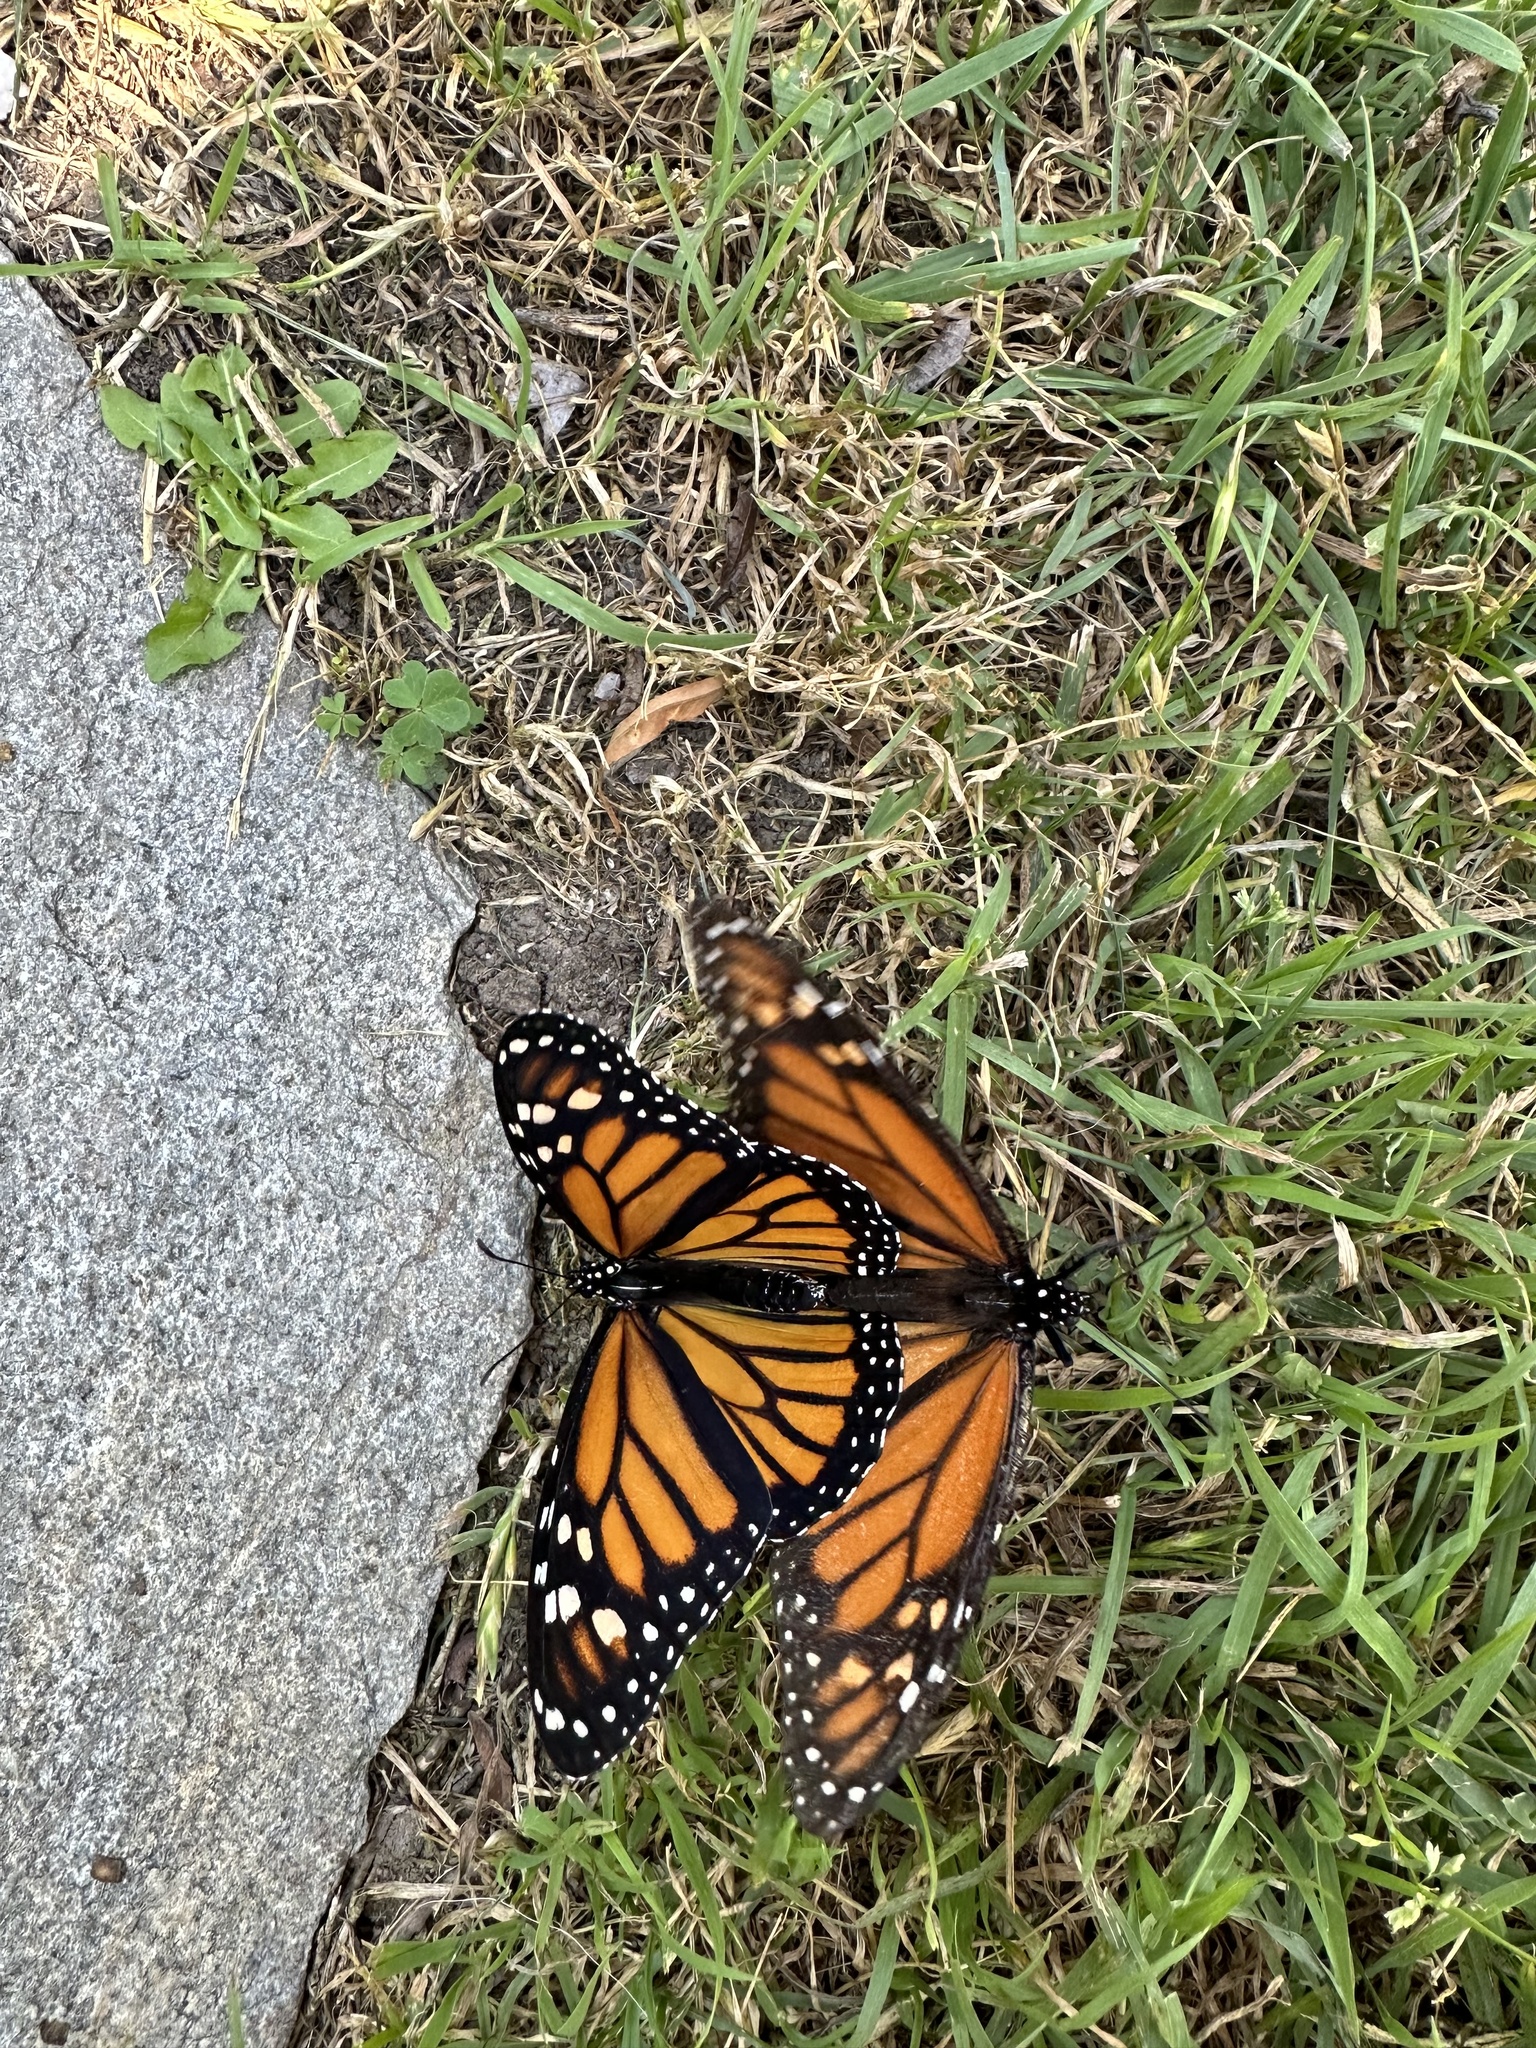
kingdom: Animalia
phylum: Arthropoda
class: Insecta
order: Lepidoptera
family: Nymphalidae
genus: Danaus
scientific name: Danaus plexippus
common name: Monarch
